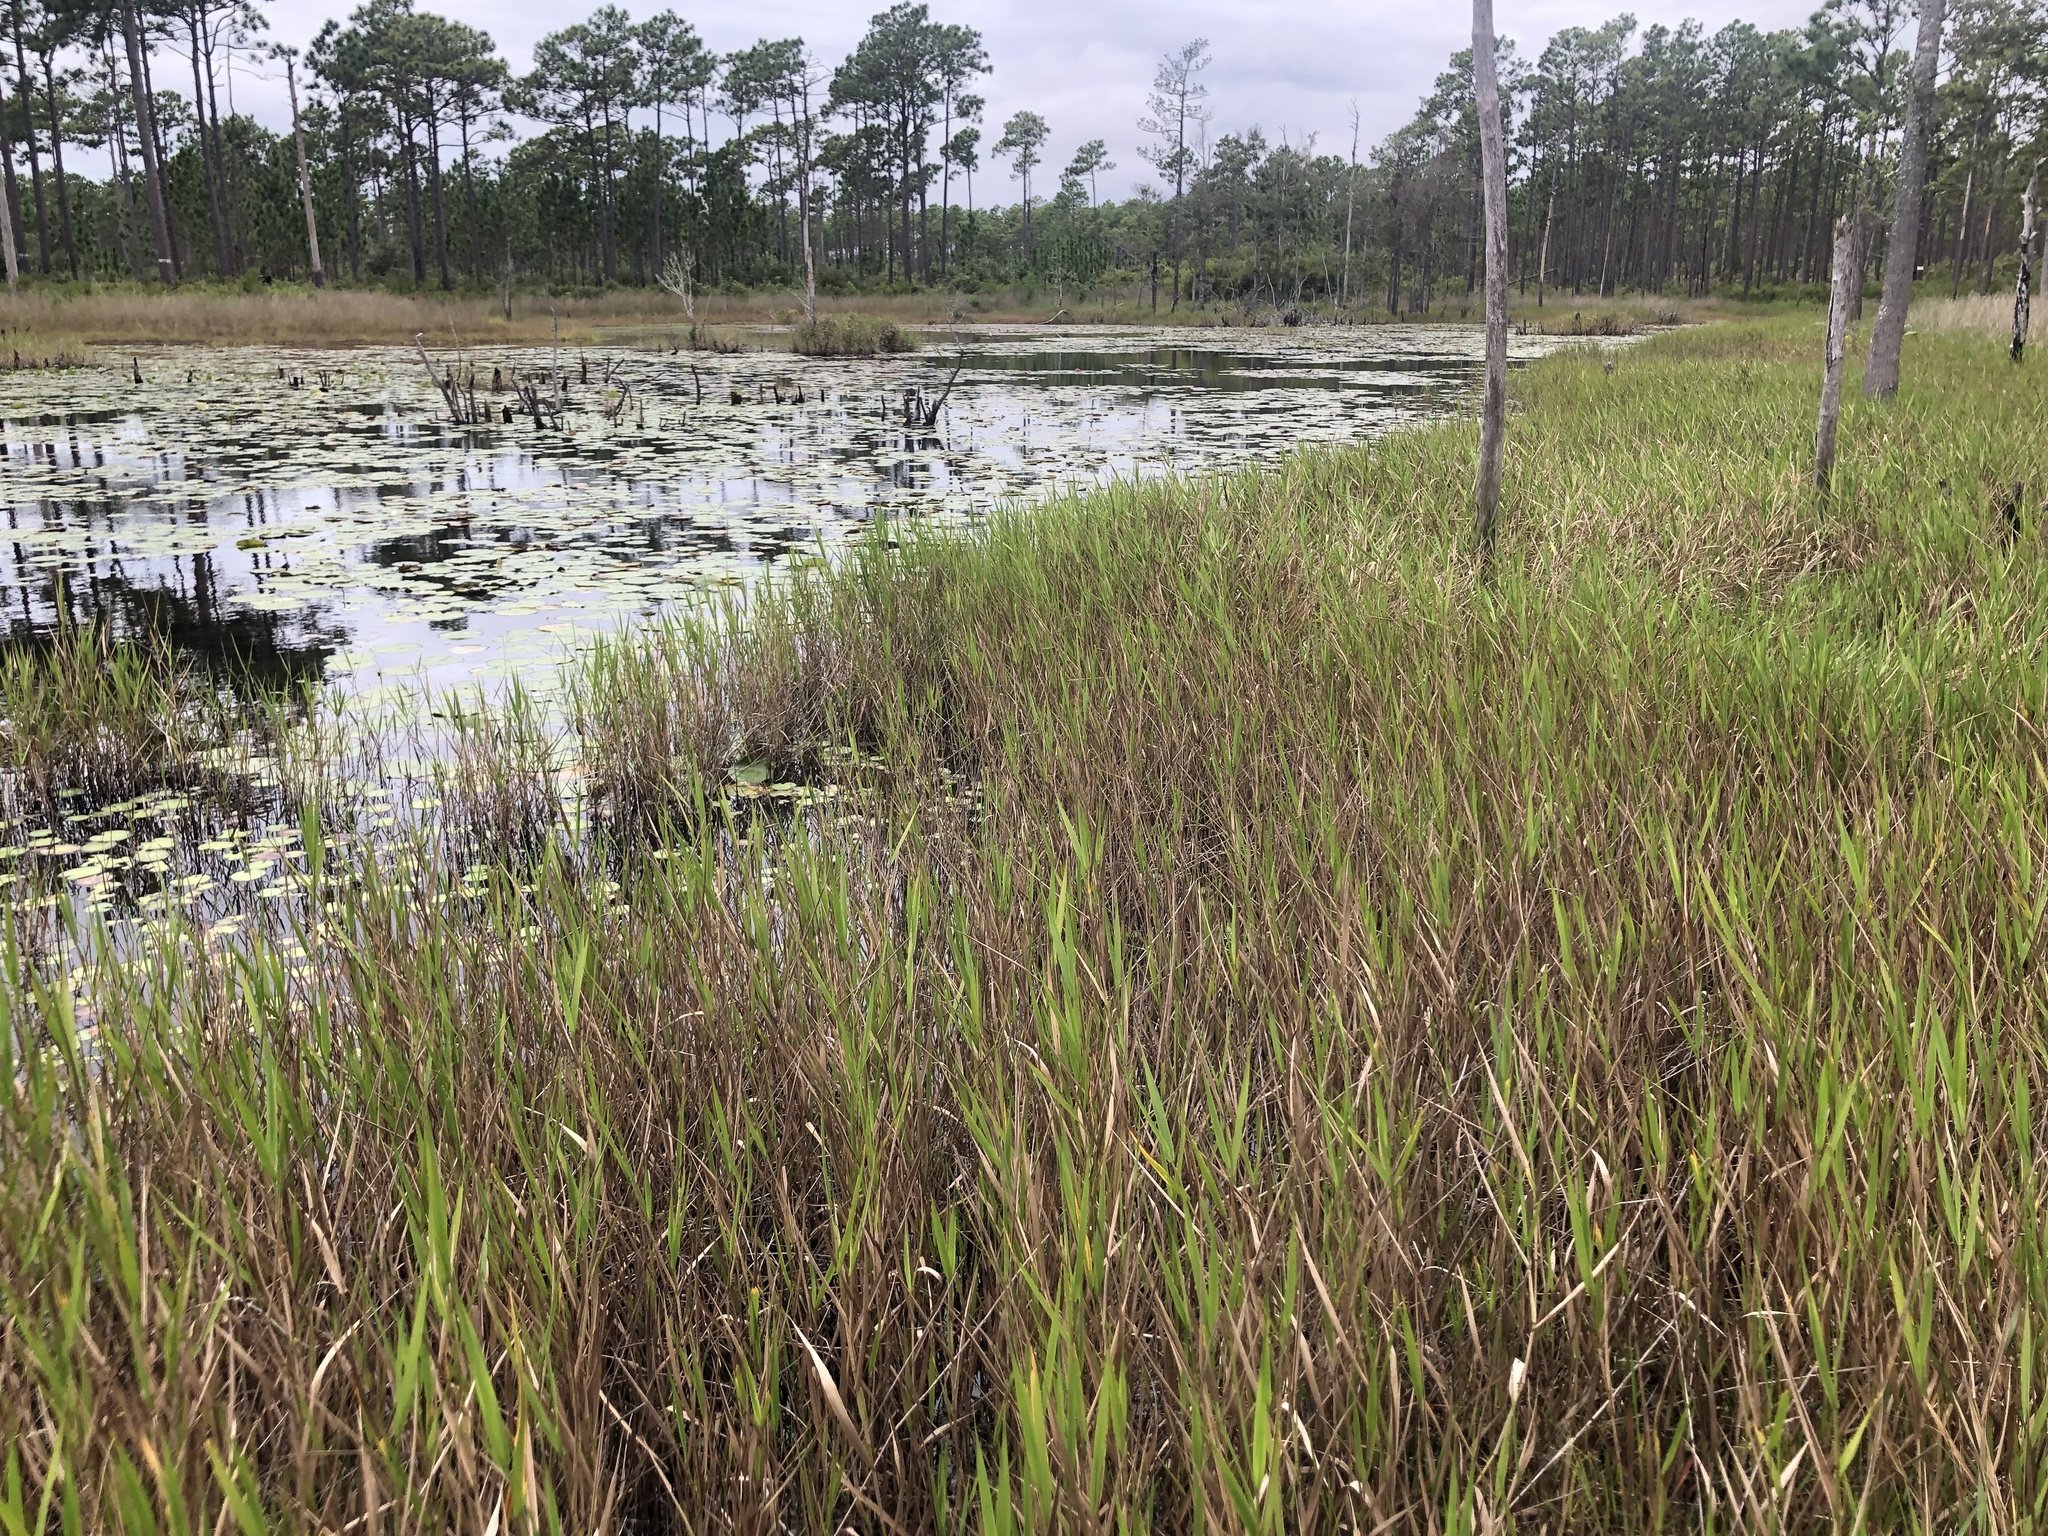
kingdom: Plantae
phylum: Tracheophyta
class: Liliopsida
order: Poales
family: Poaceae
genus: Panicum
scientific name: Panicum hemitomon
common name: Maidencane
